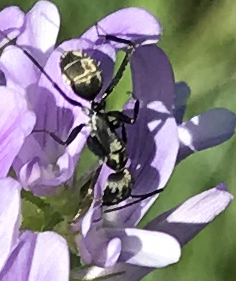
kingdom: Animalia
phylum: Arthropoda
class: Insecta
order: Hymenoptera
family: Formicidae
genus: Camponotus
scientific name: Camponotus cinctellus
